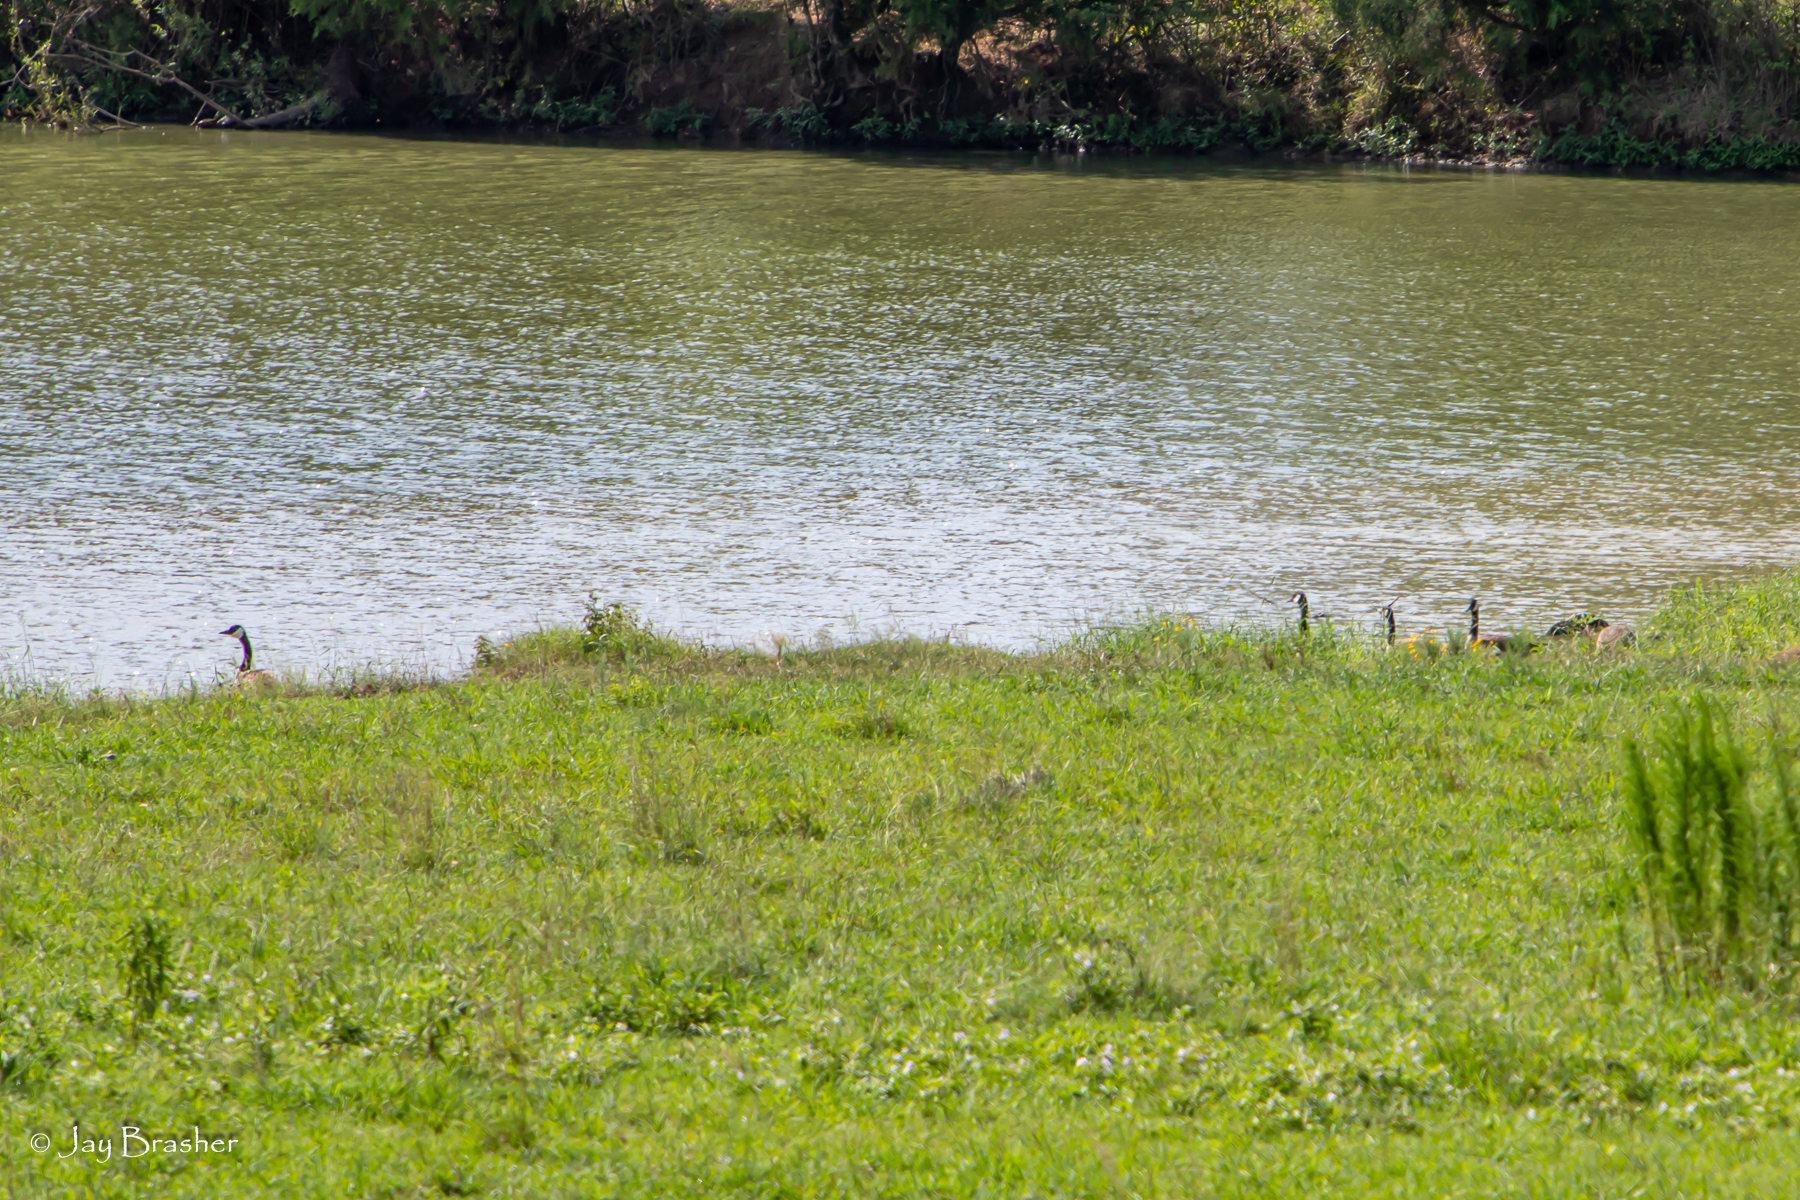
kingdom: Animalia
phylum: Chordata
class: Aves
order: Anseriformes
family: Anatidae
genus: Branta
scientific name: Branta canadensis
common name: Canada goose
